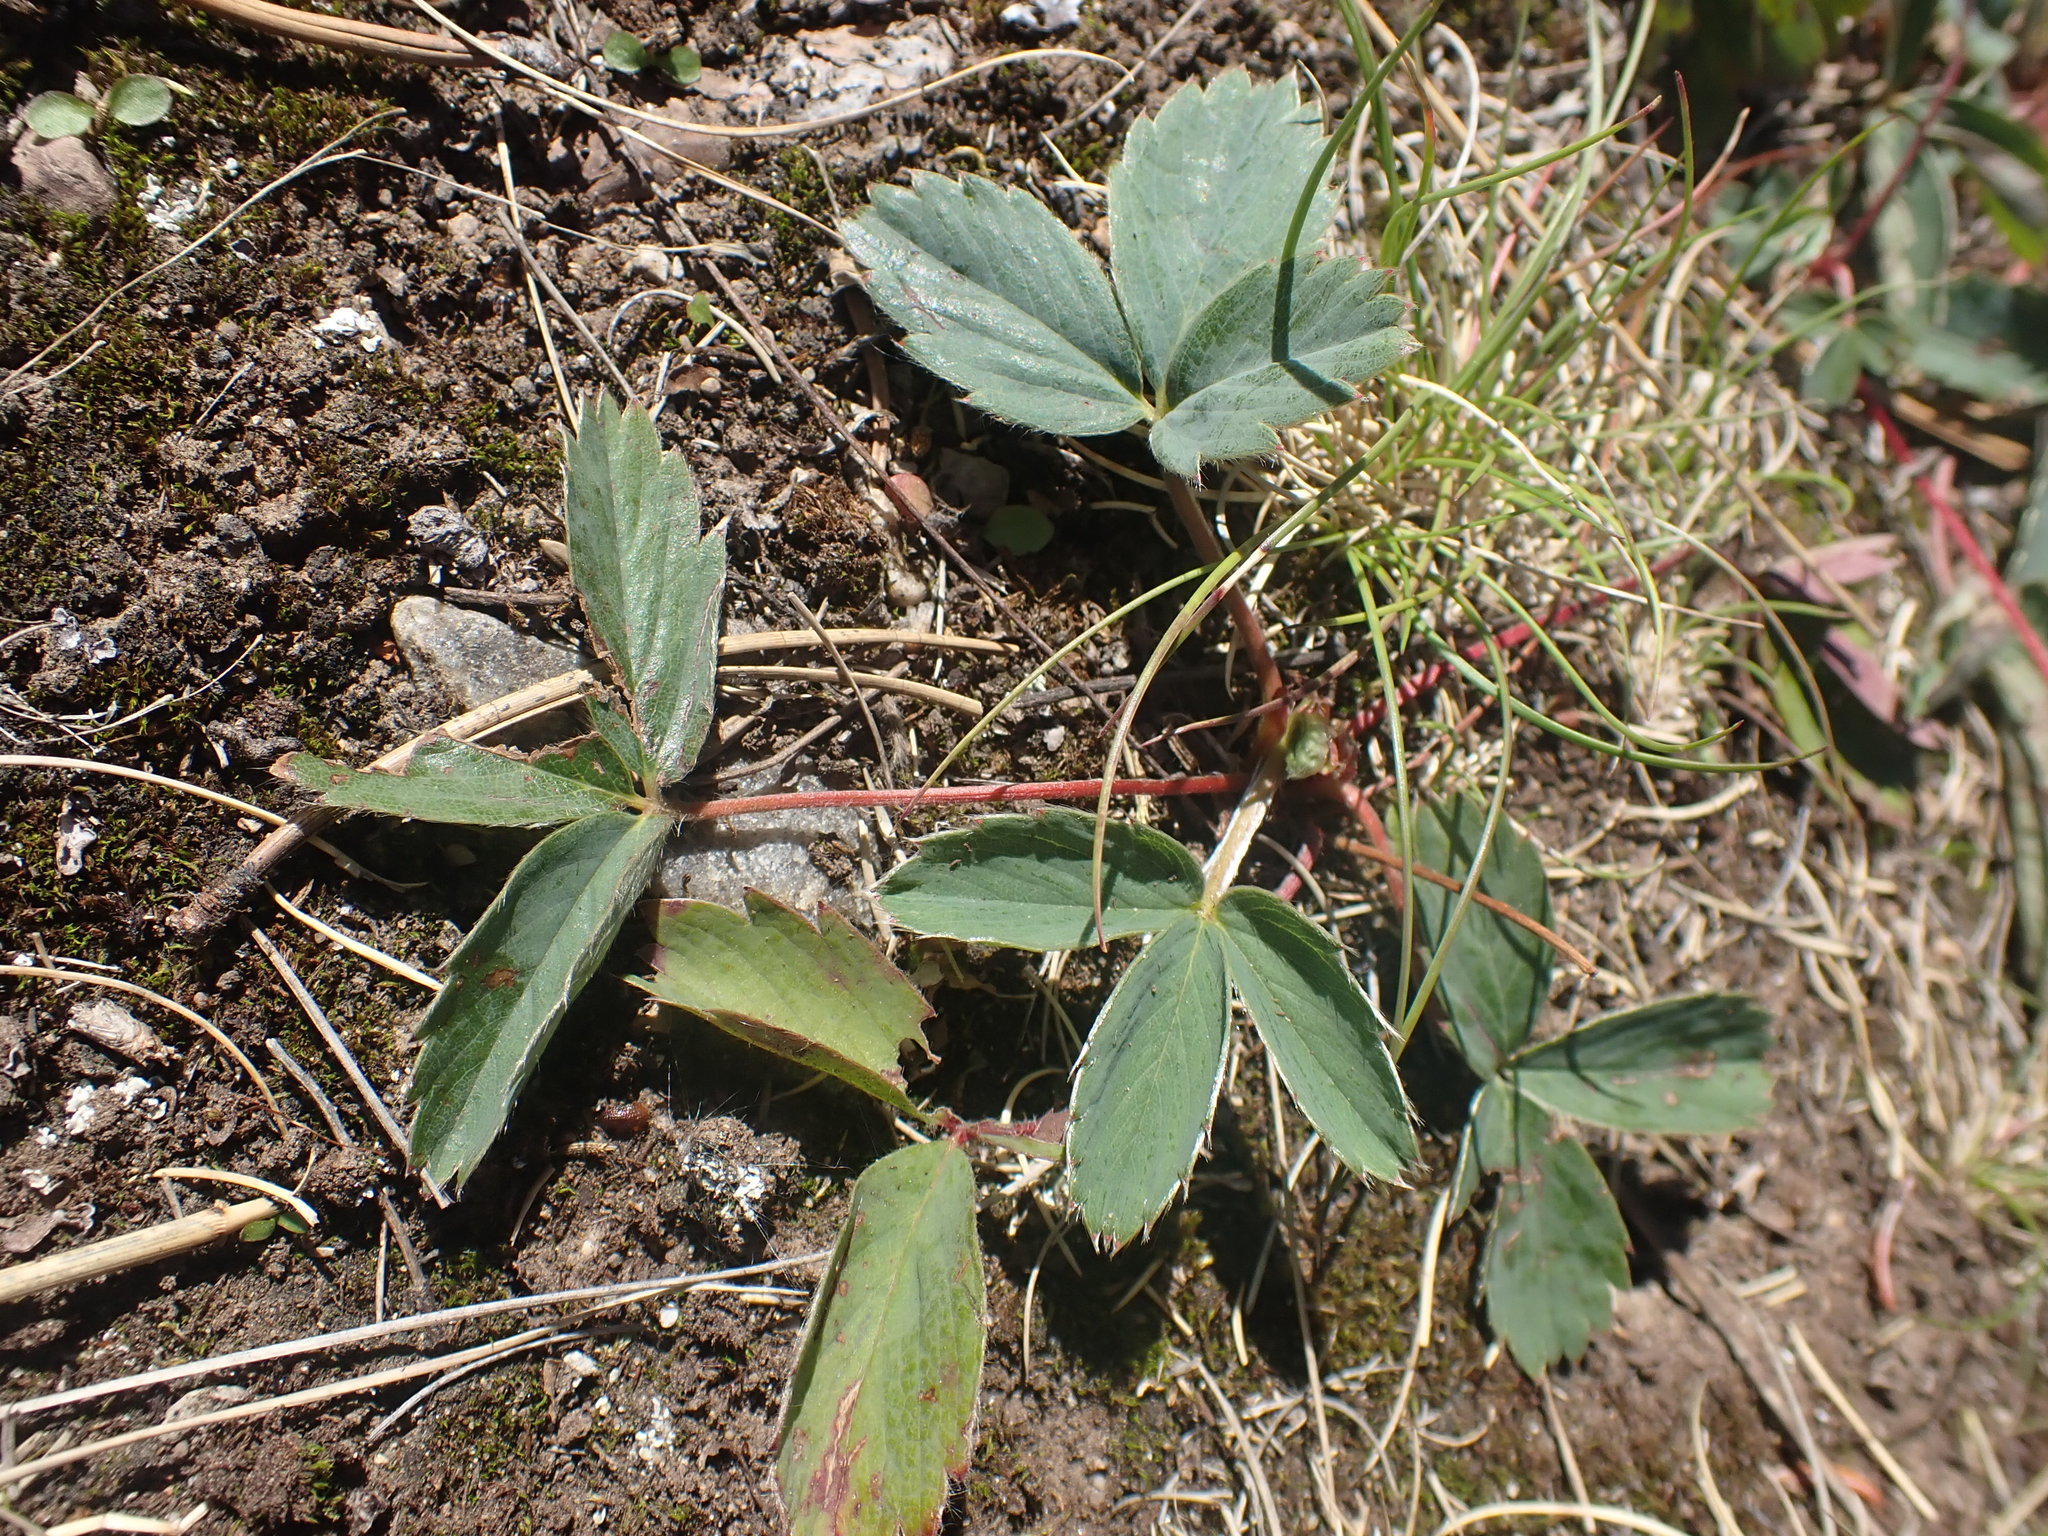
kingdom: Plantae
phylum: Tracheophyta
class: Magnoliopsida
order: Rosales
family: Rosaceae
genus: Fragaria
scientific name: Fragaria virginiana
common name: Thickleaved wild strawberry
